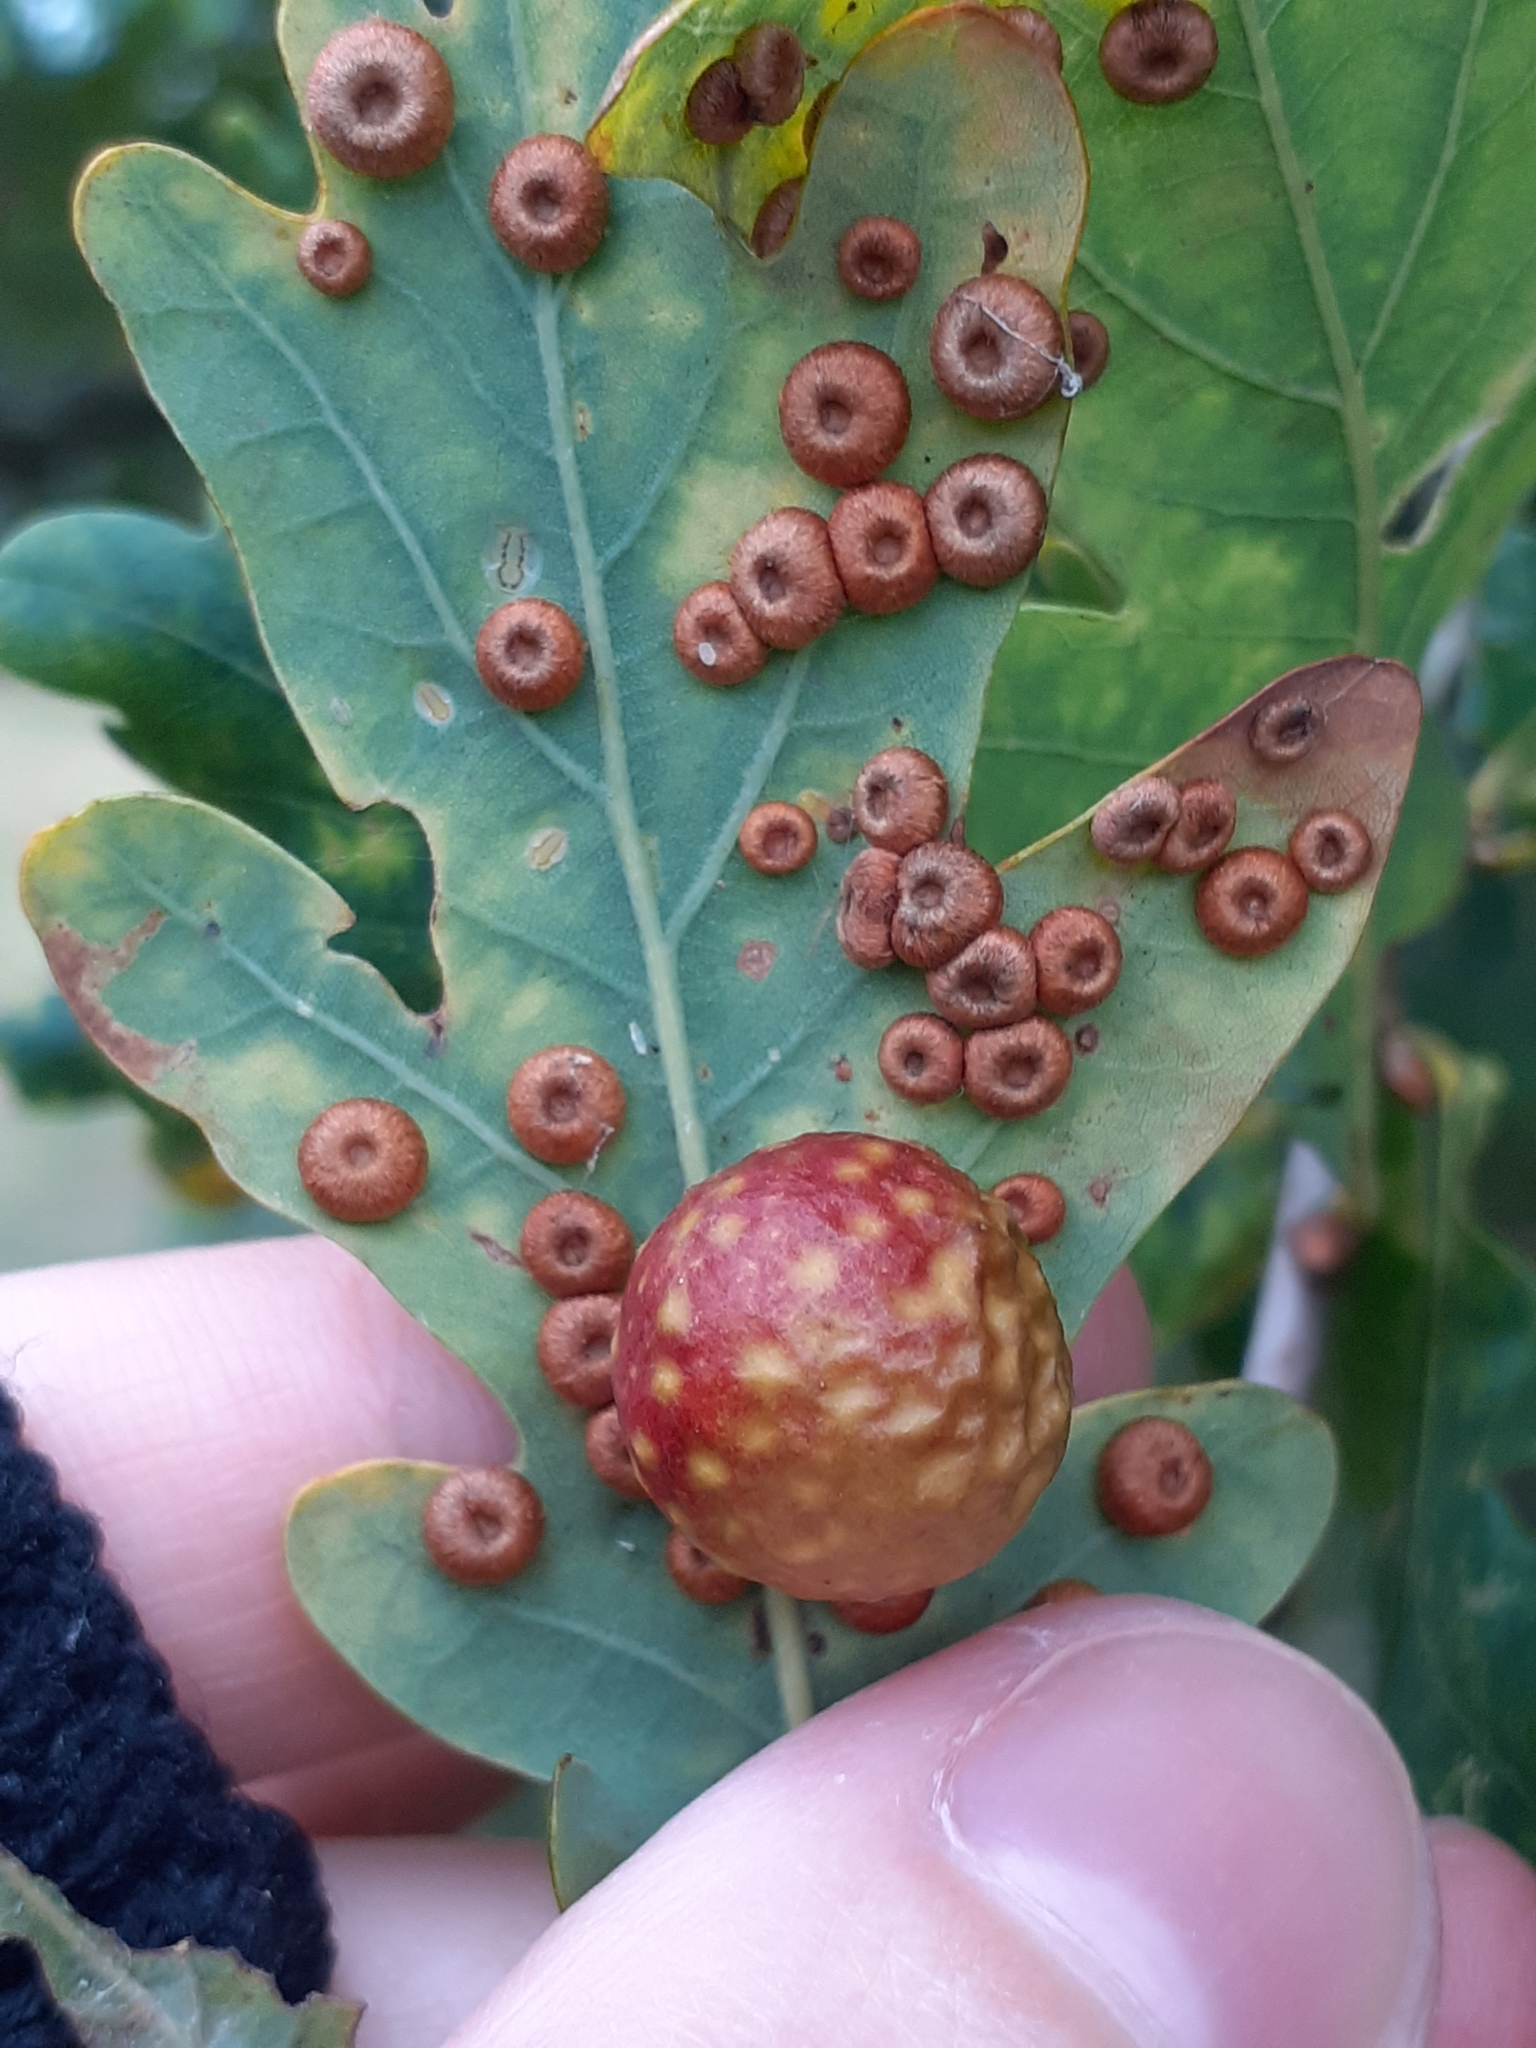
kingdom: Animalia
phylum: Arthropoda
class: Insecta
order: Hymenoptera
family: Cynipidae
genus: Cynips
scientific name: Cynips quercusfolii
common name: Cherry gall
